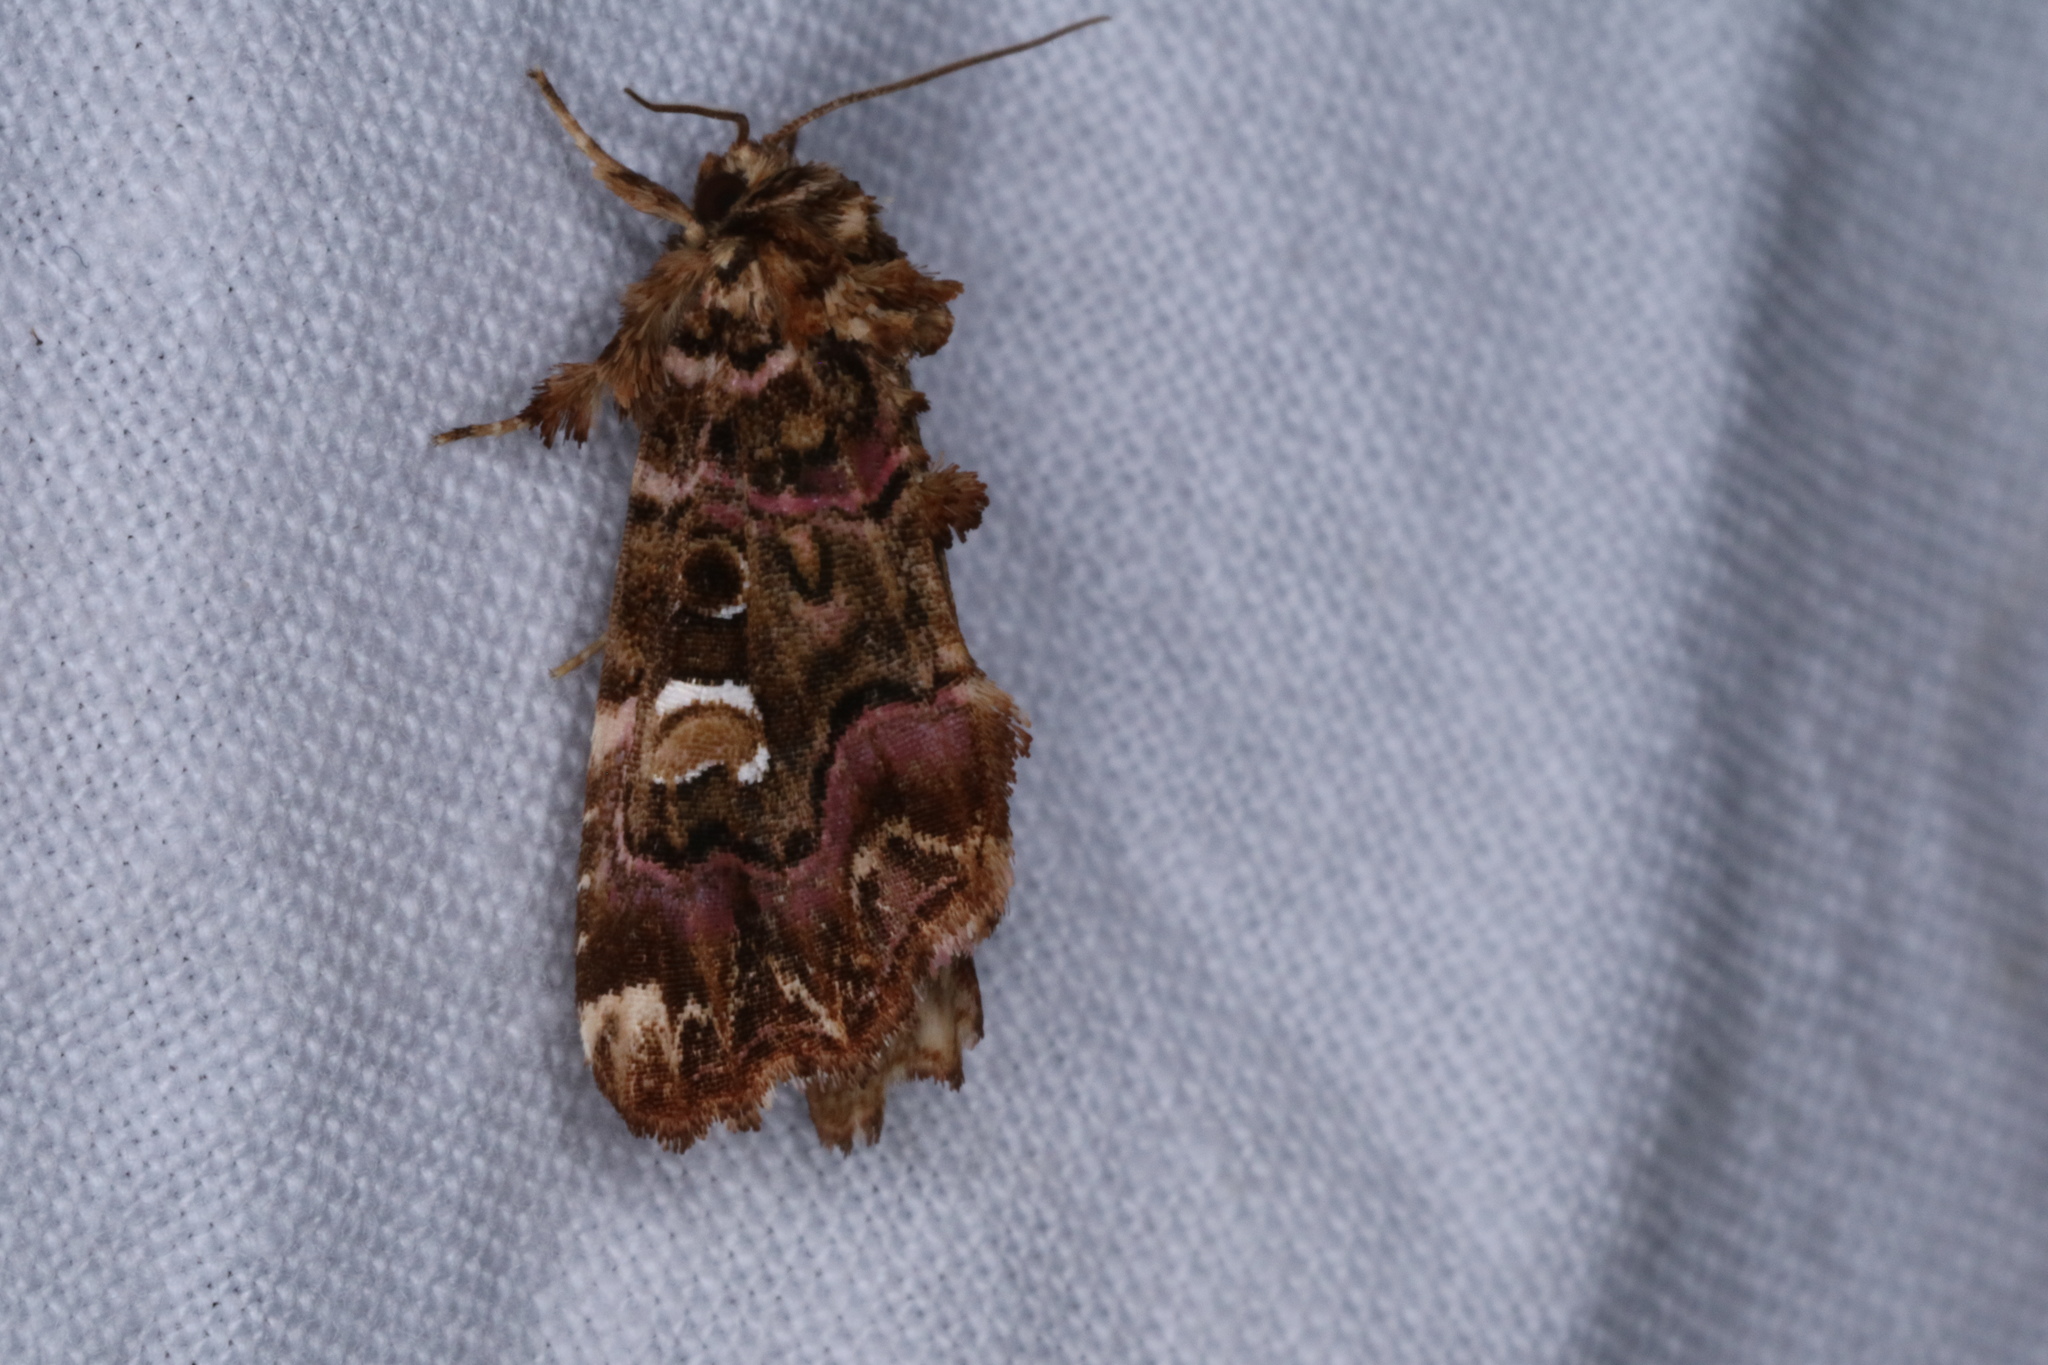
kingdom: Animalia
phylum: Arthropoda
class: Insecta
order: Lepidoptera
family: Noctuidae
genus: Callopistria
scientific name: Callopistria mollissima
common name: Pink-shaded fern moth
